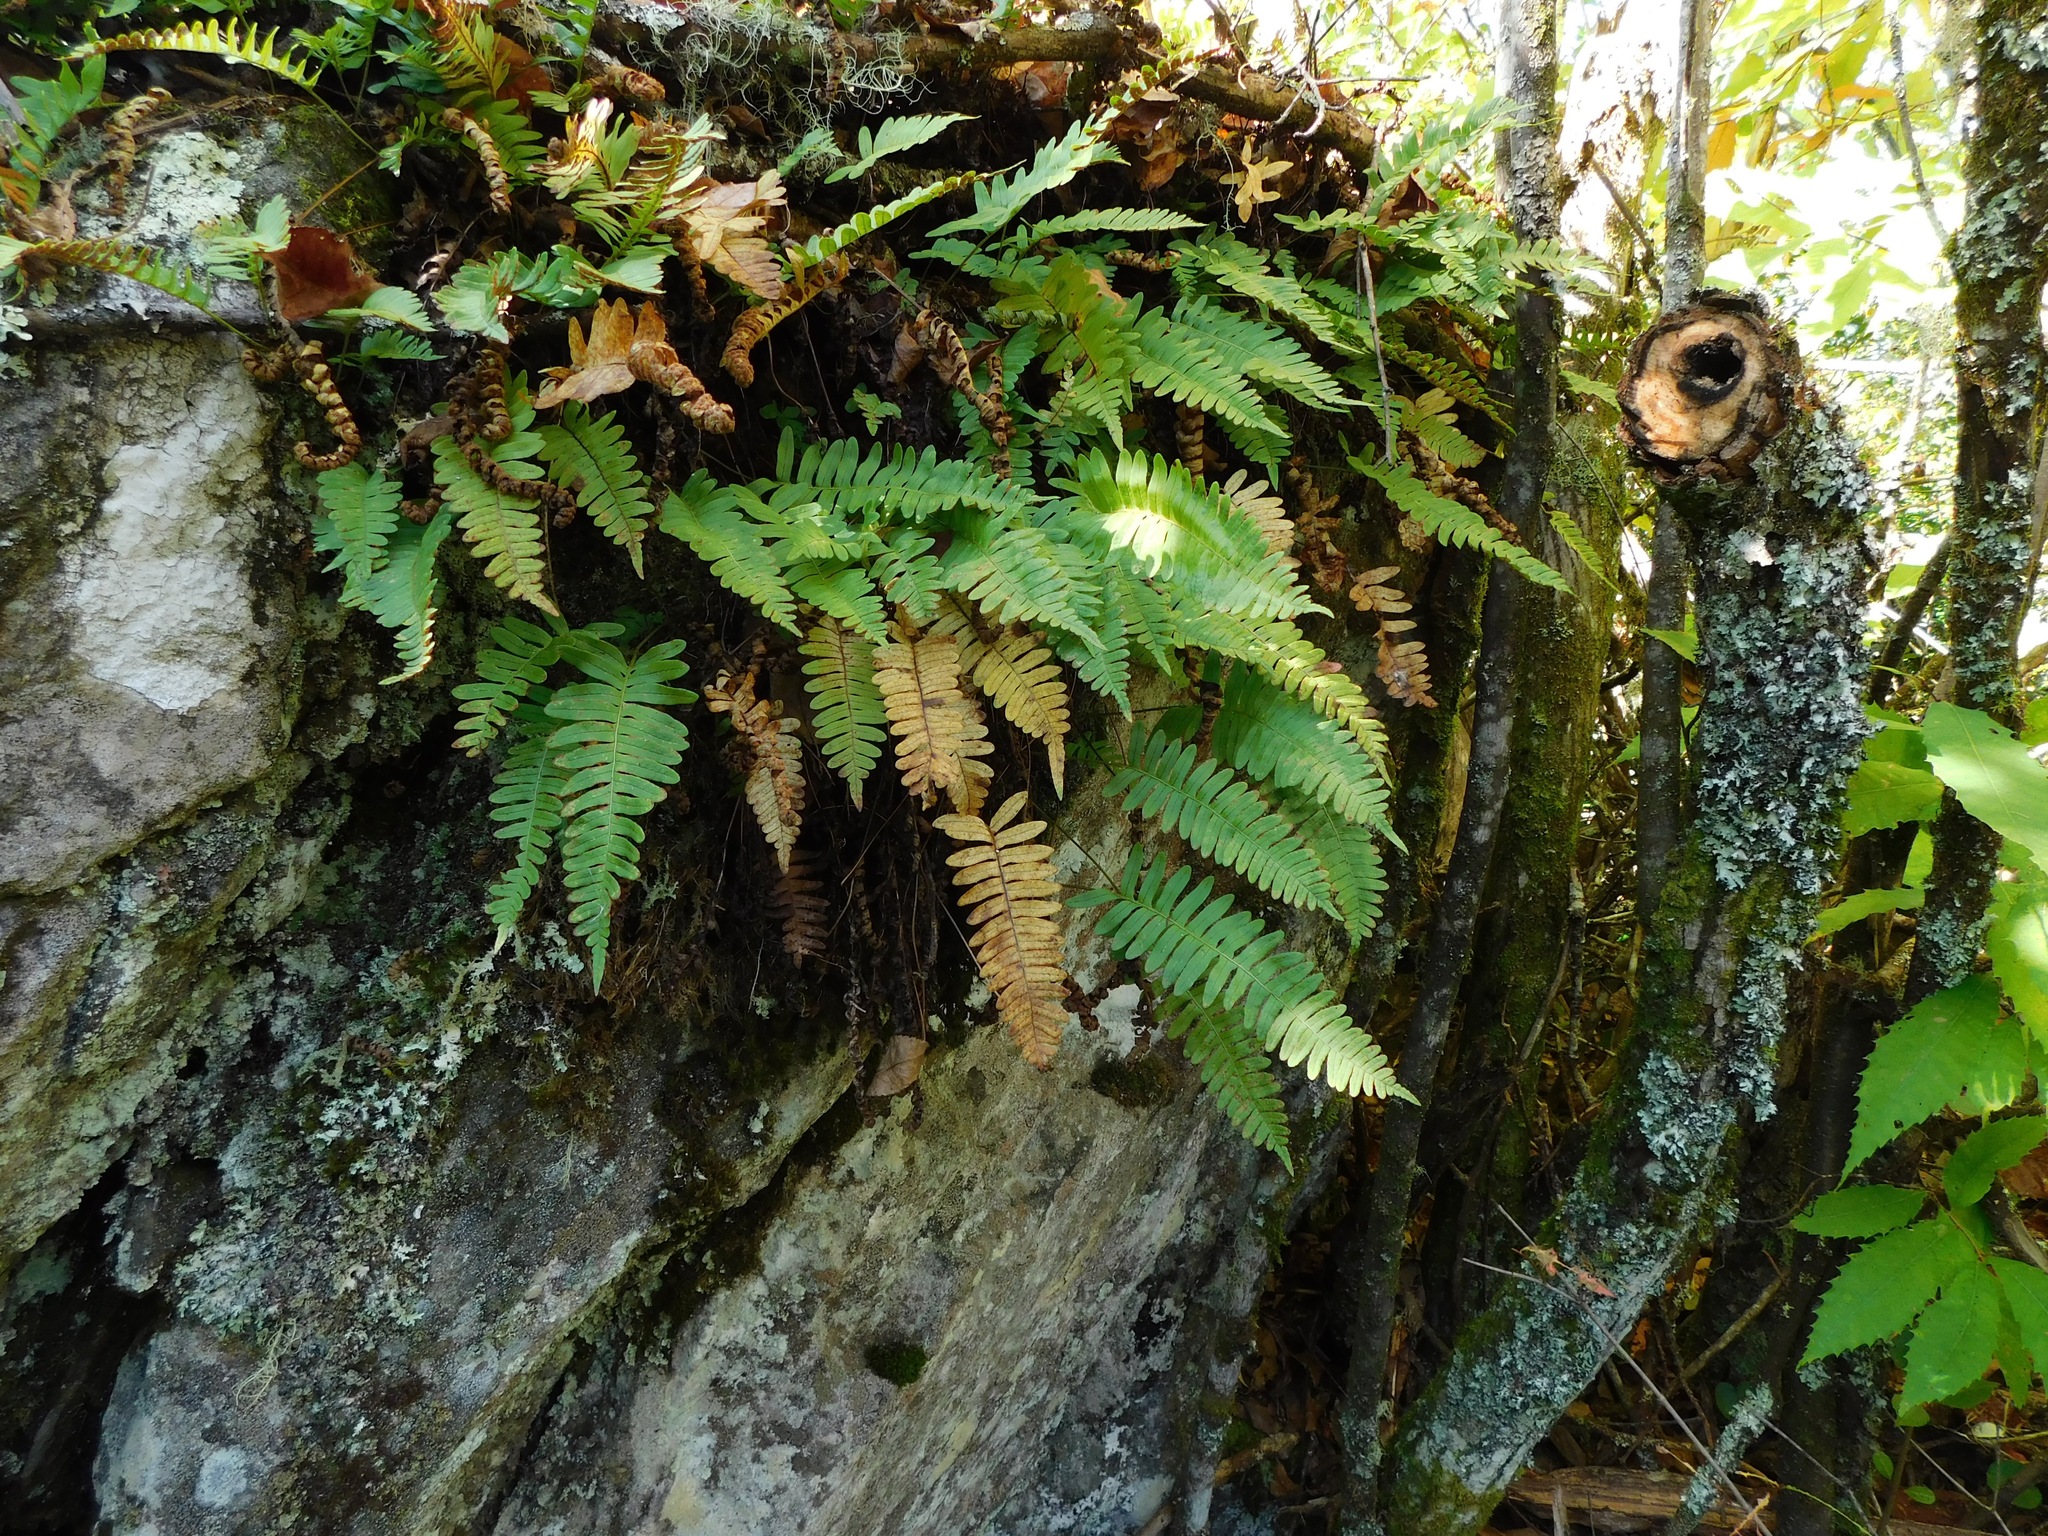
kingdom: Plantae
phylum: Tracheophyta
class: Polypodiopsida
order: Polypodiales
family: Polypodiaceae
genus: Polypodium
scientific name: Polypodium appalachianum
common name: Appalachian polypody
